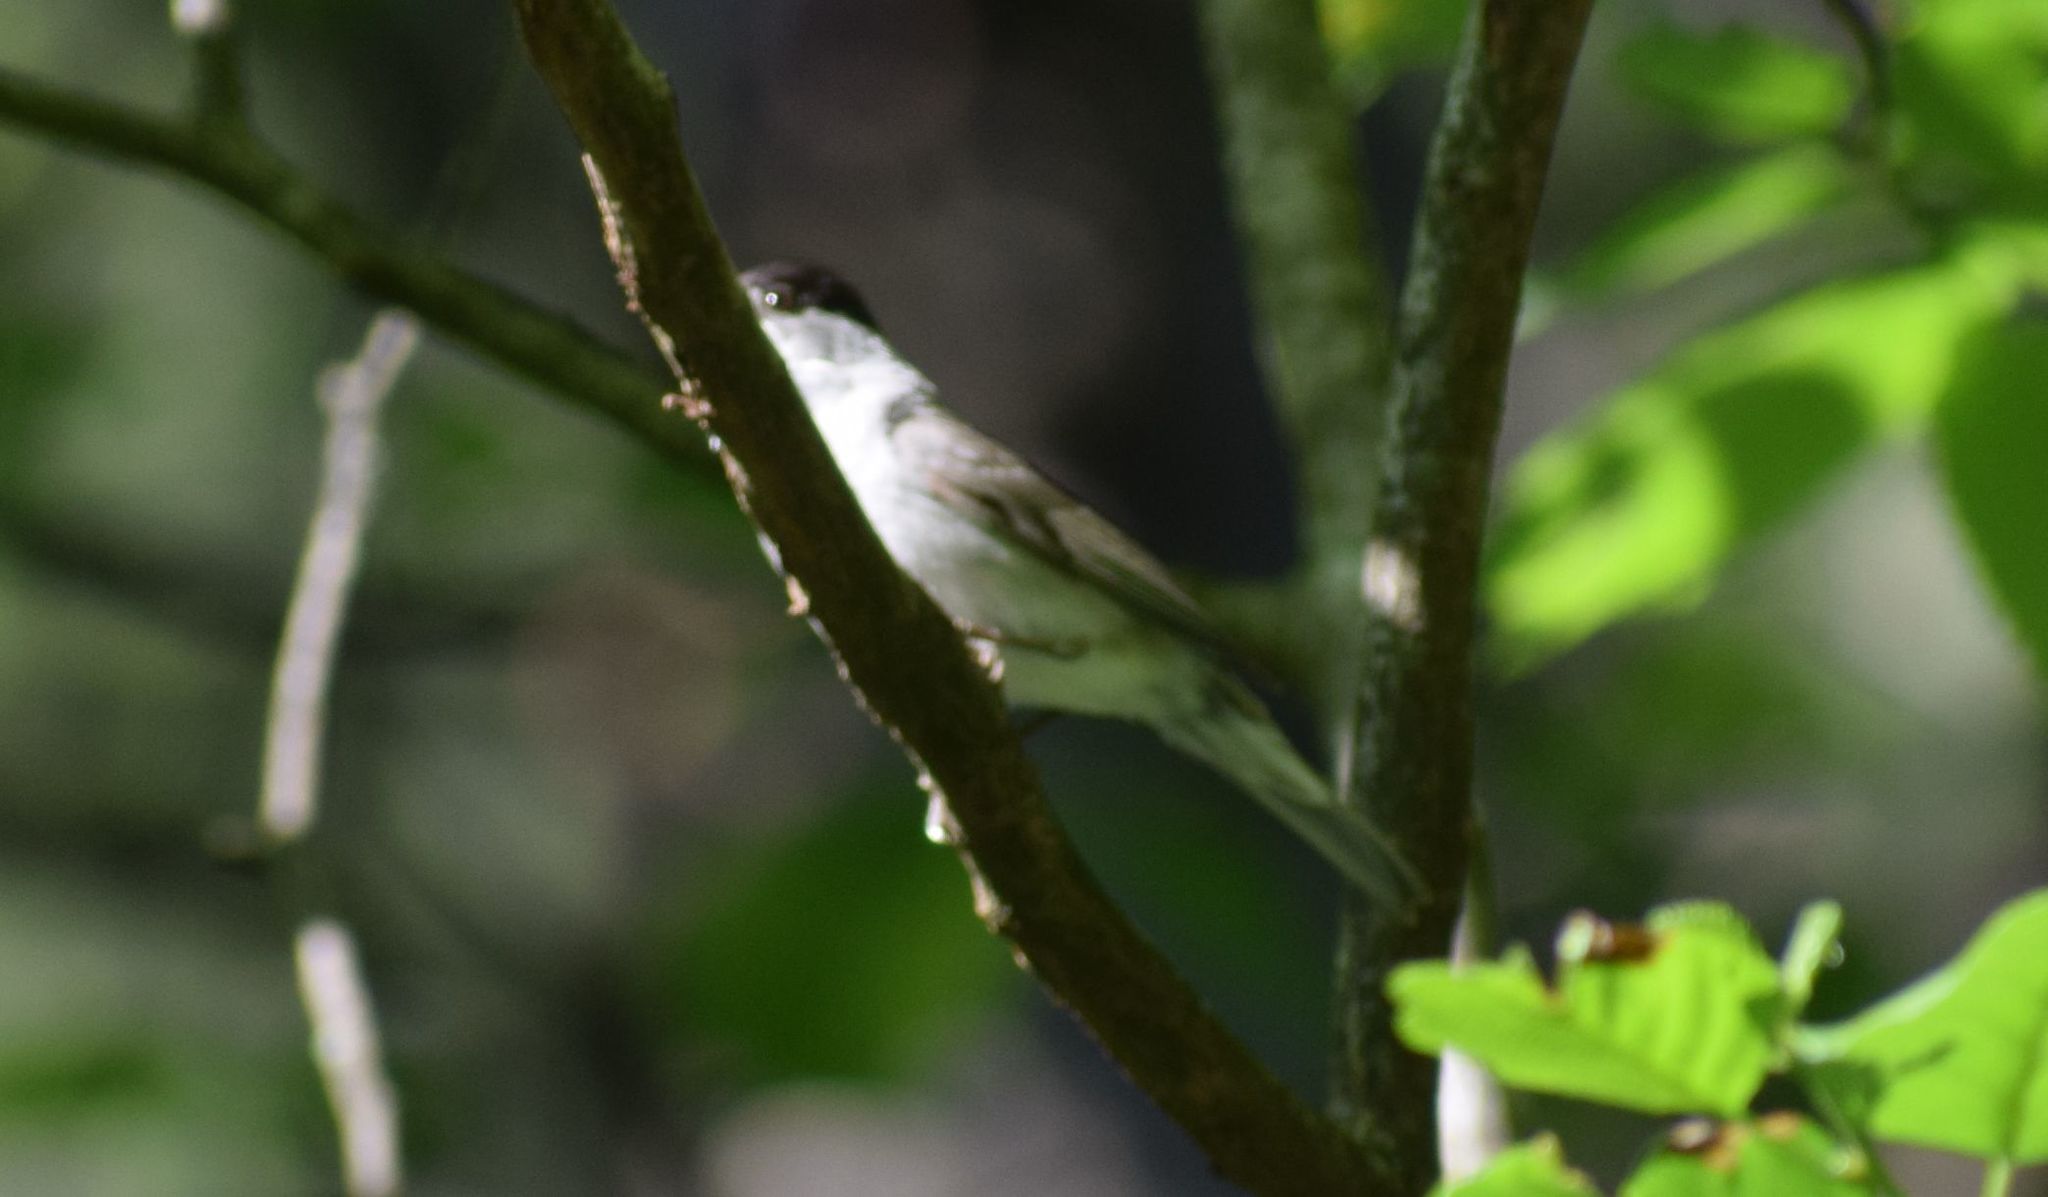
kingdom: Animalia
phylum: Chordata
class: Aves
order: Passeriformes
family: Sylviidae
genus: Sylvia
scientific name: Sylvia atricapilla
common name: Eurasian blackcap
